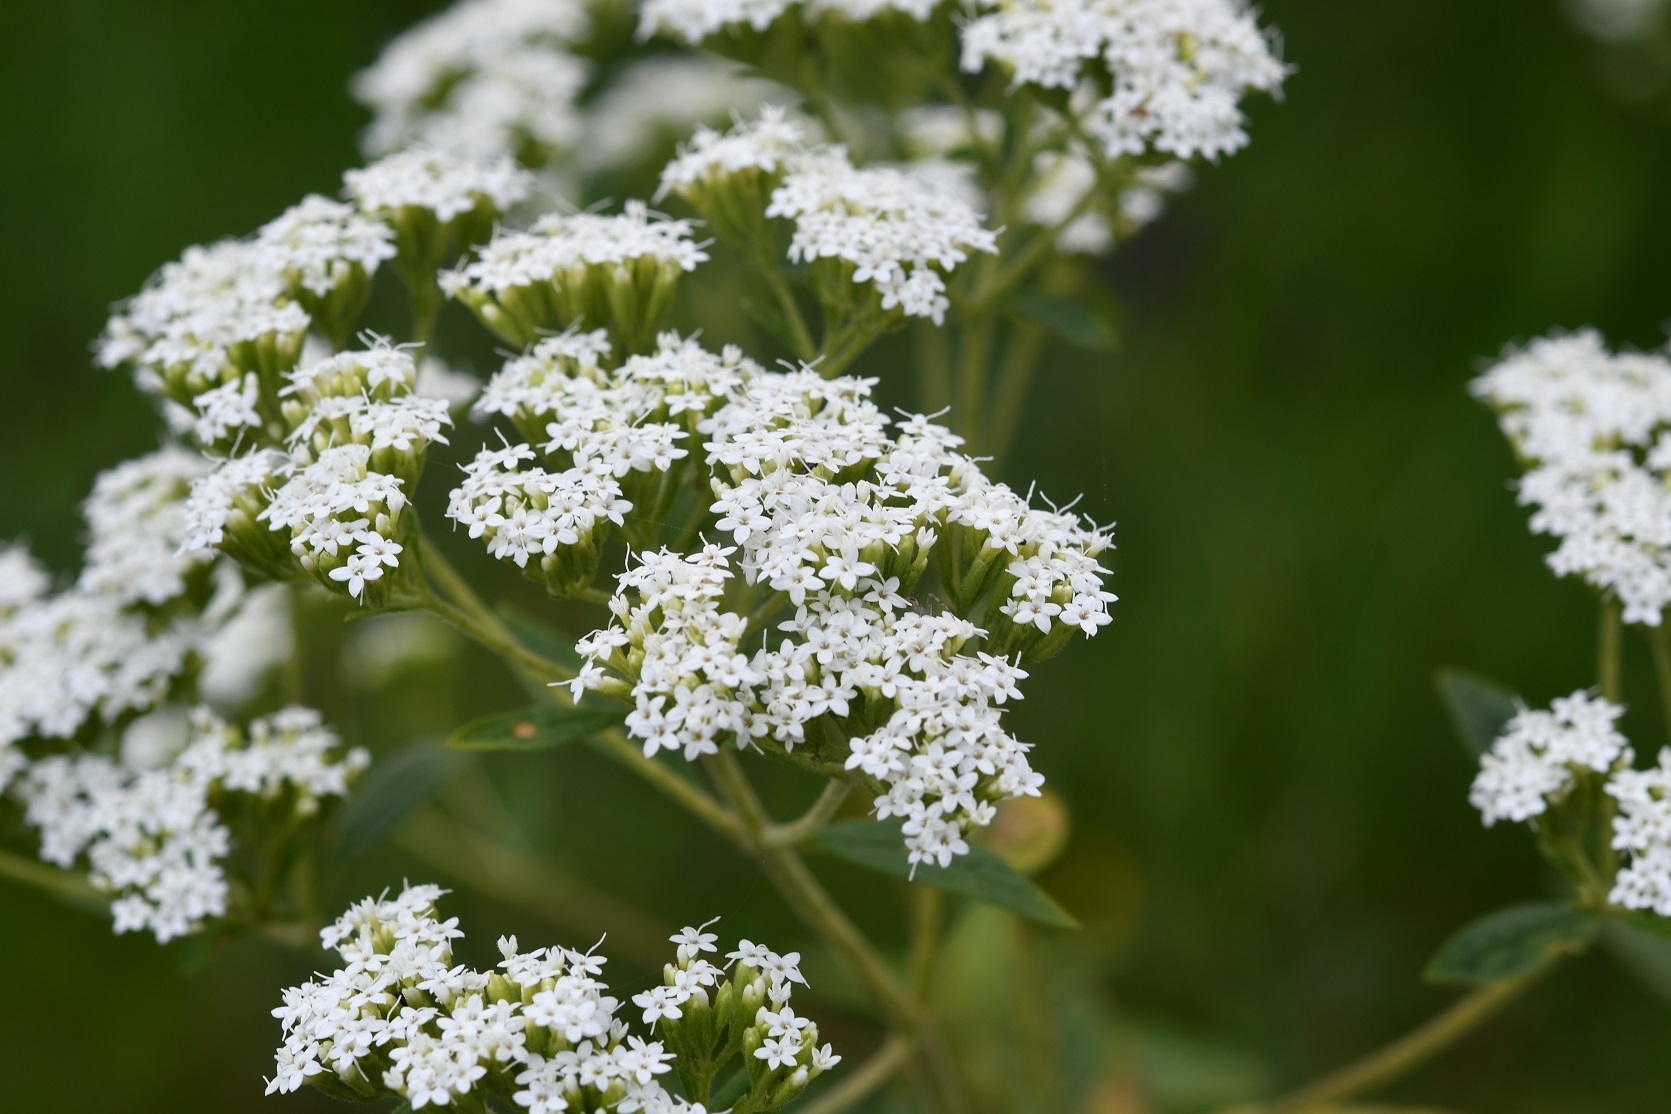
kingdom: Plantae
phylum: Tracheophyta
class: Magnoliopsida
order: Asterales
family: Asteraceae
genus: Stevia
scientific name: Stevia ovata
